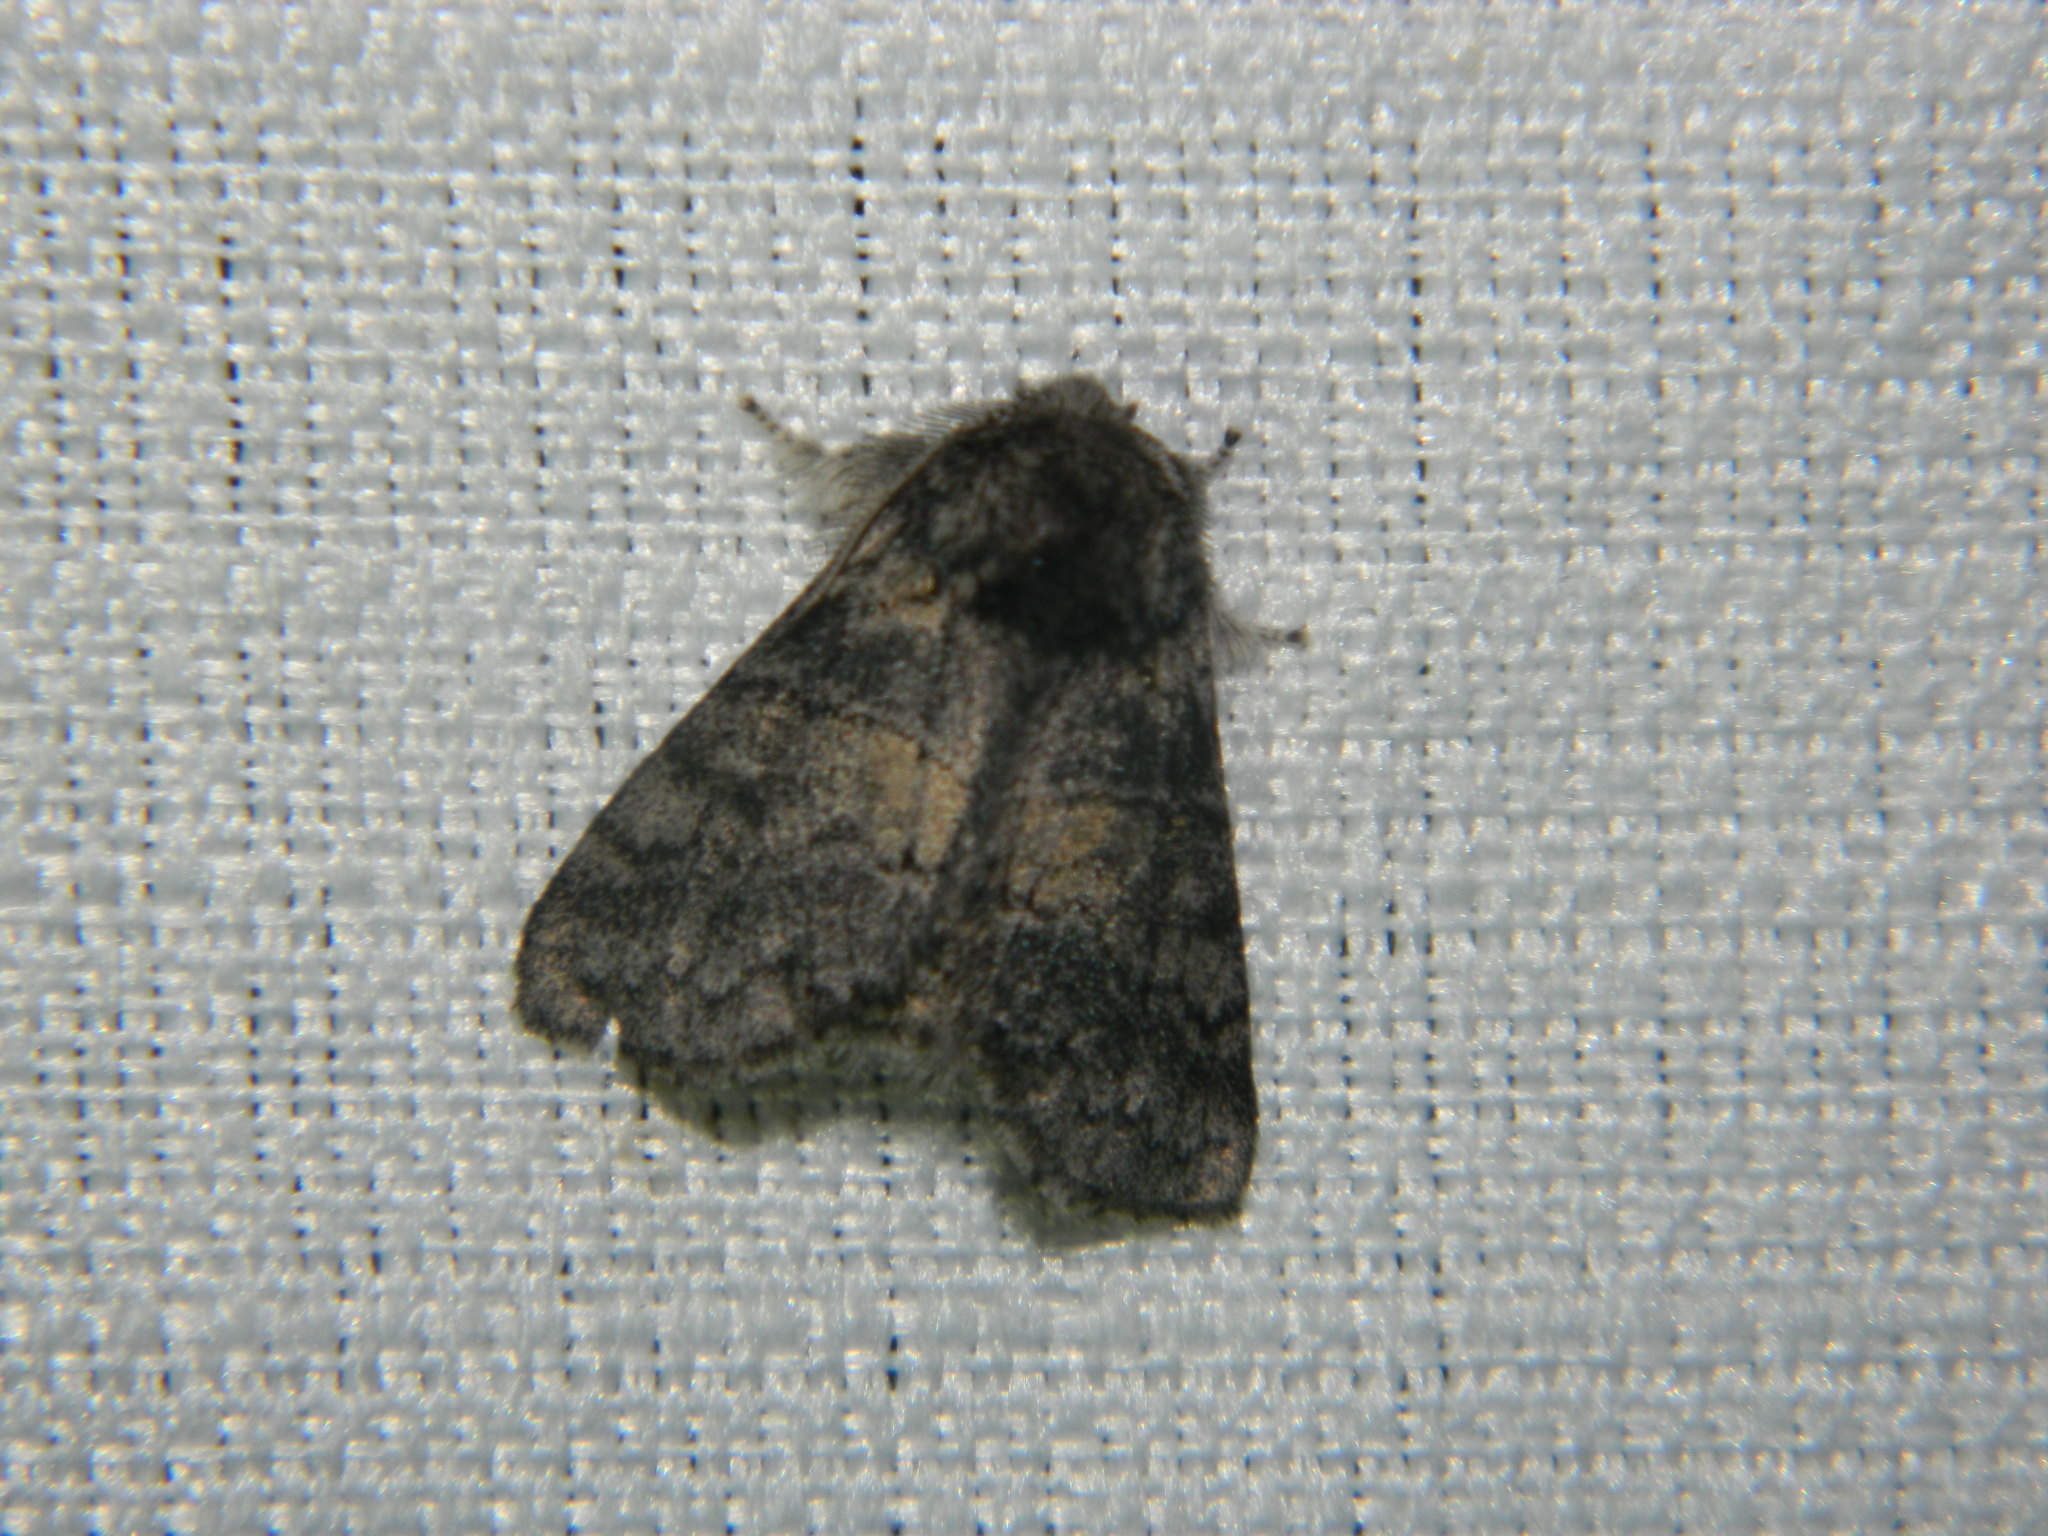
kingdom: Animalia
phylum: Arthropoda
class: Insecta
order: Lepidoptera
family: Notodontidae
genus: Gluphisia
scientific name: Gluphisia septentrionis
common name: Common gluphisia
